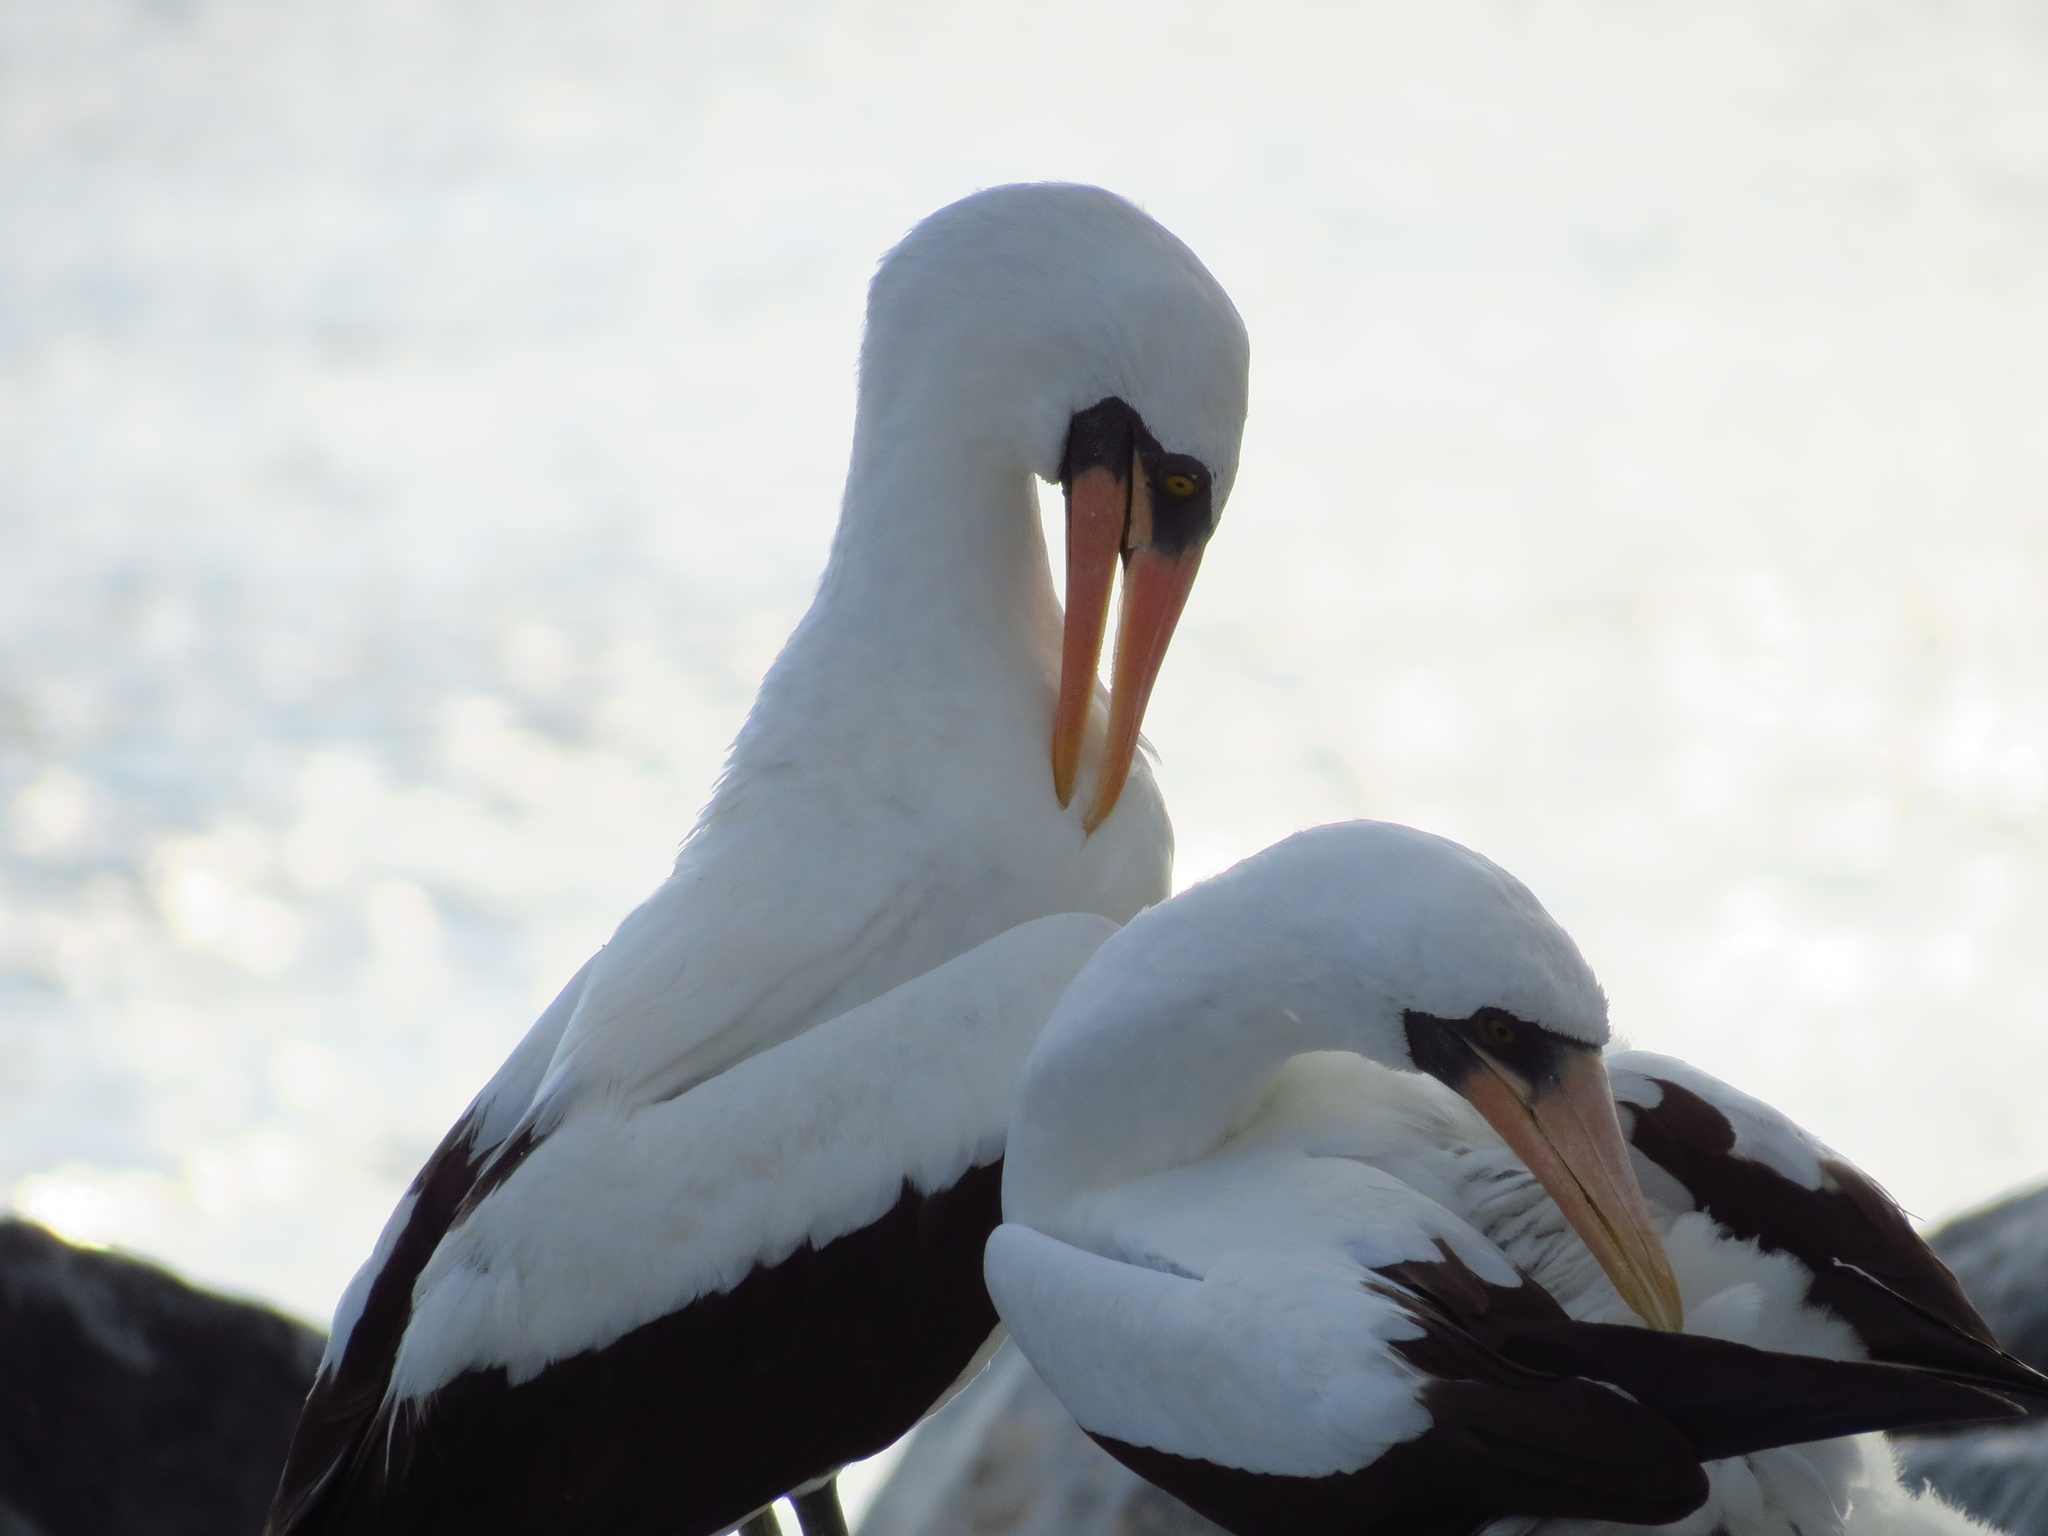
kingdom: Animalia
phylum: Chordata
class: Aves
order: Suliformes
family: Sulidae
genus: Sula
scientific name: Sula granti
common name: Nazca booby
